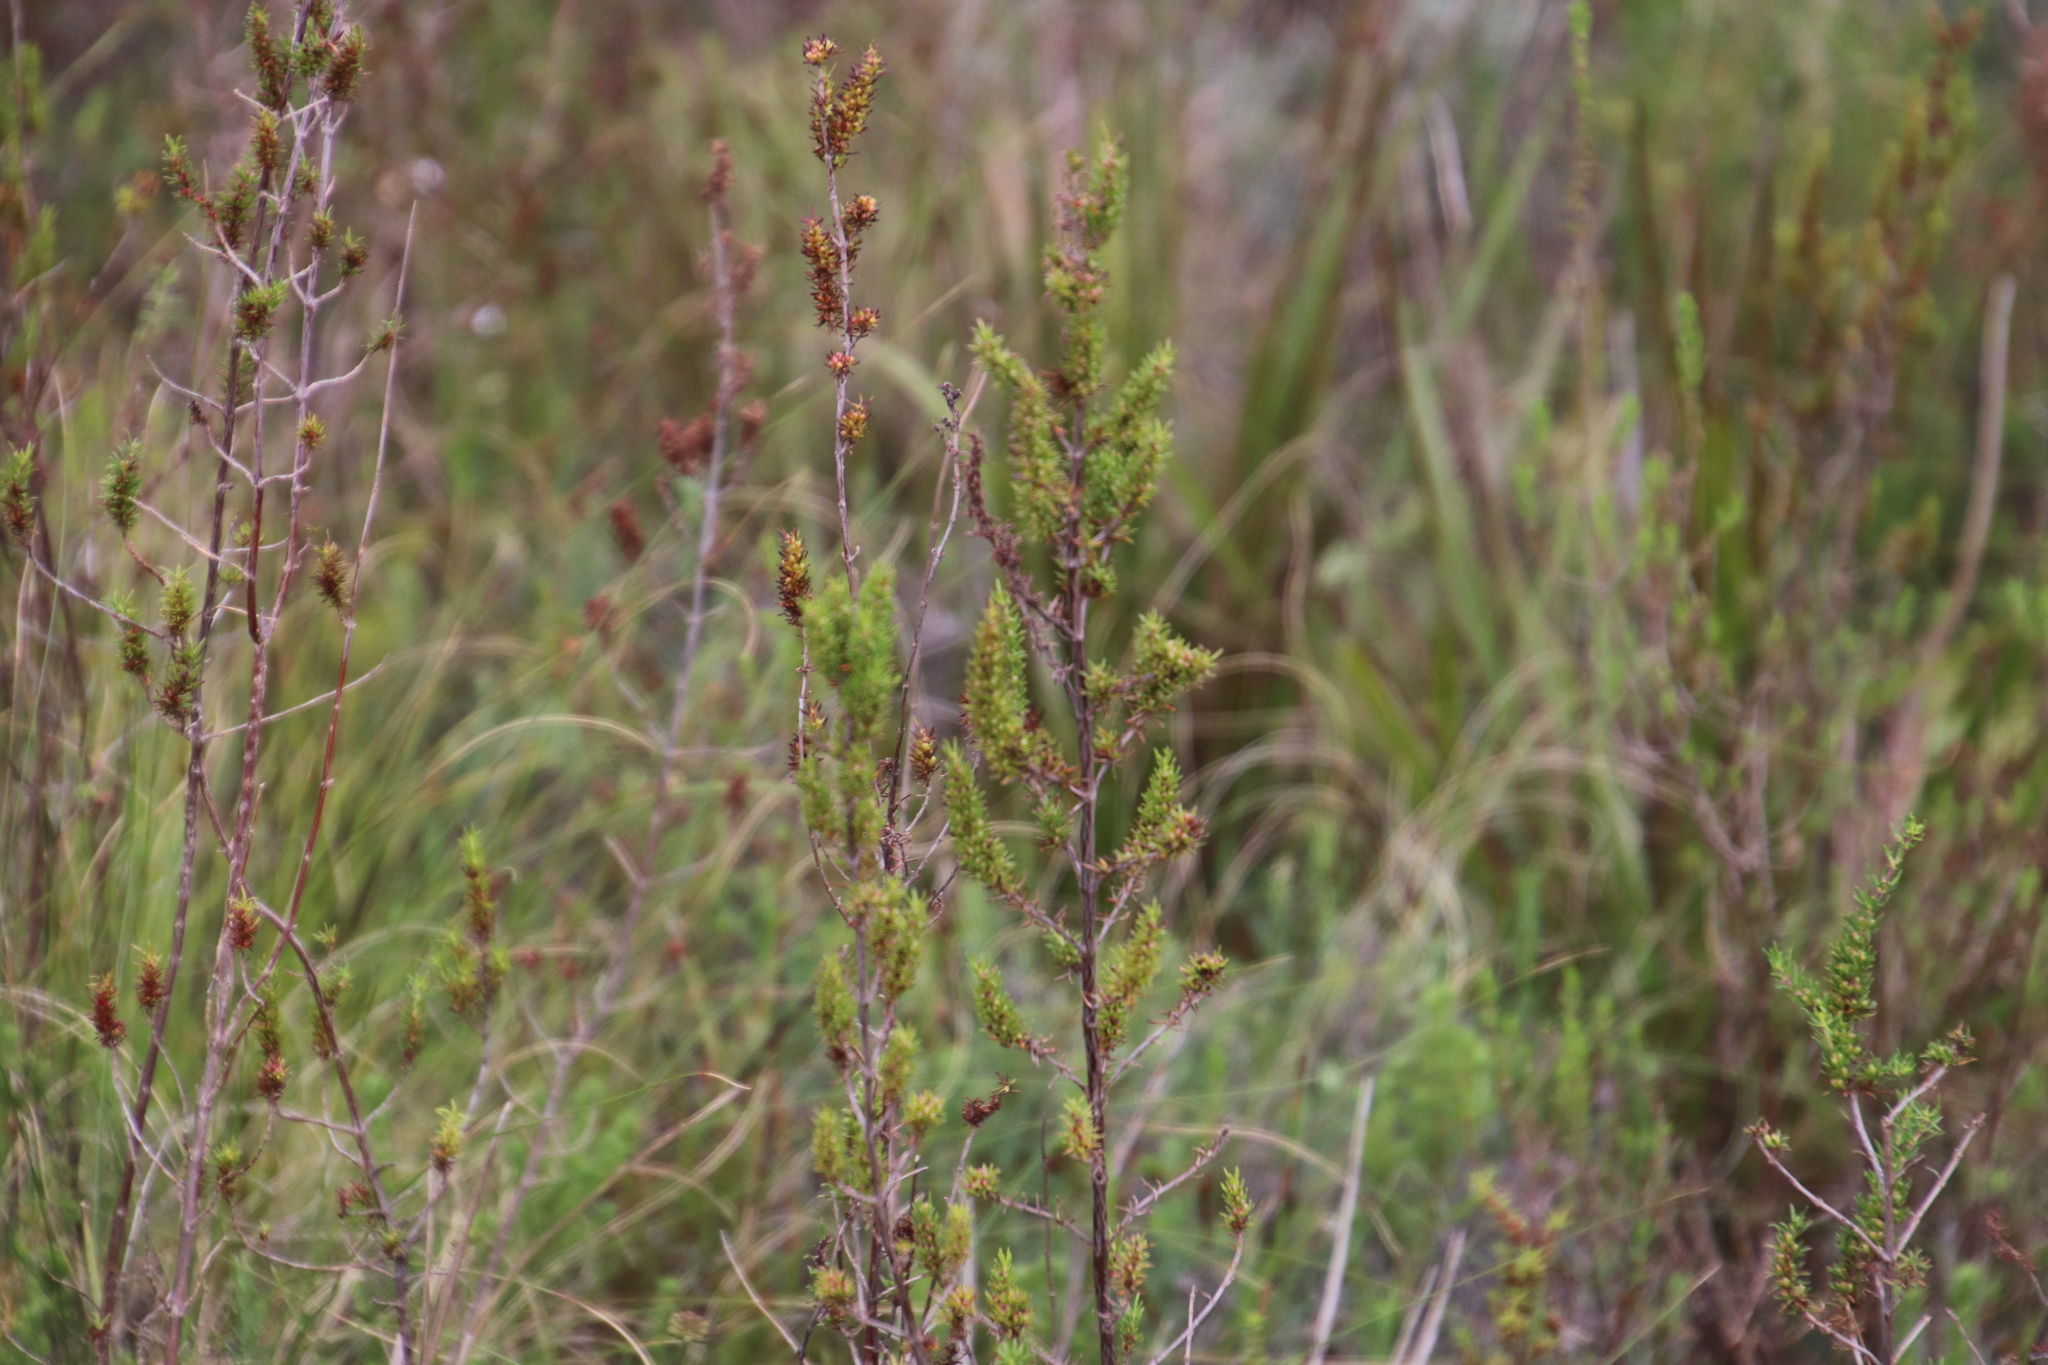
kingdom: Plantae
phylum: Tracheophyta
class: Magnoliopsida
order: Gentianales
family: Rubiaceae
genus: Anthospermum
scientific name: Anthospermum aethiopicum
